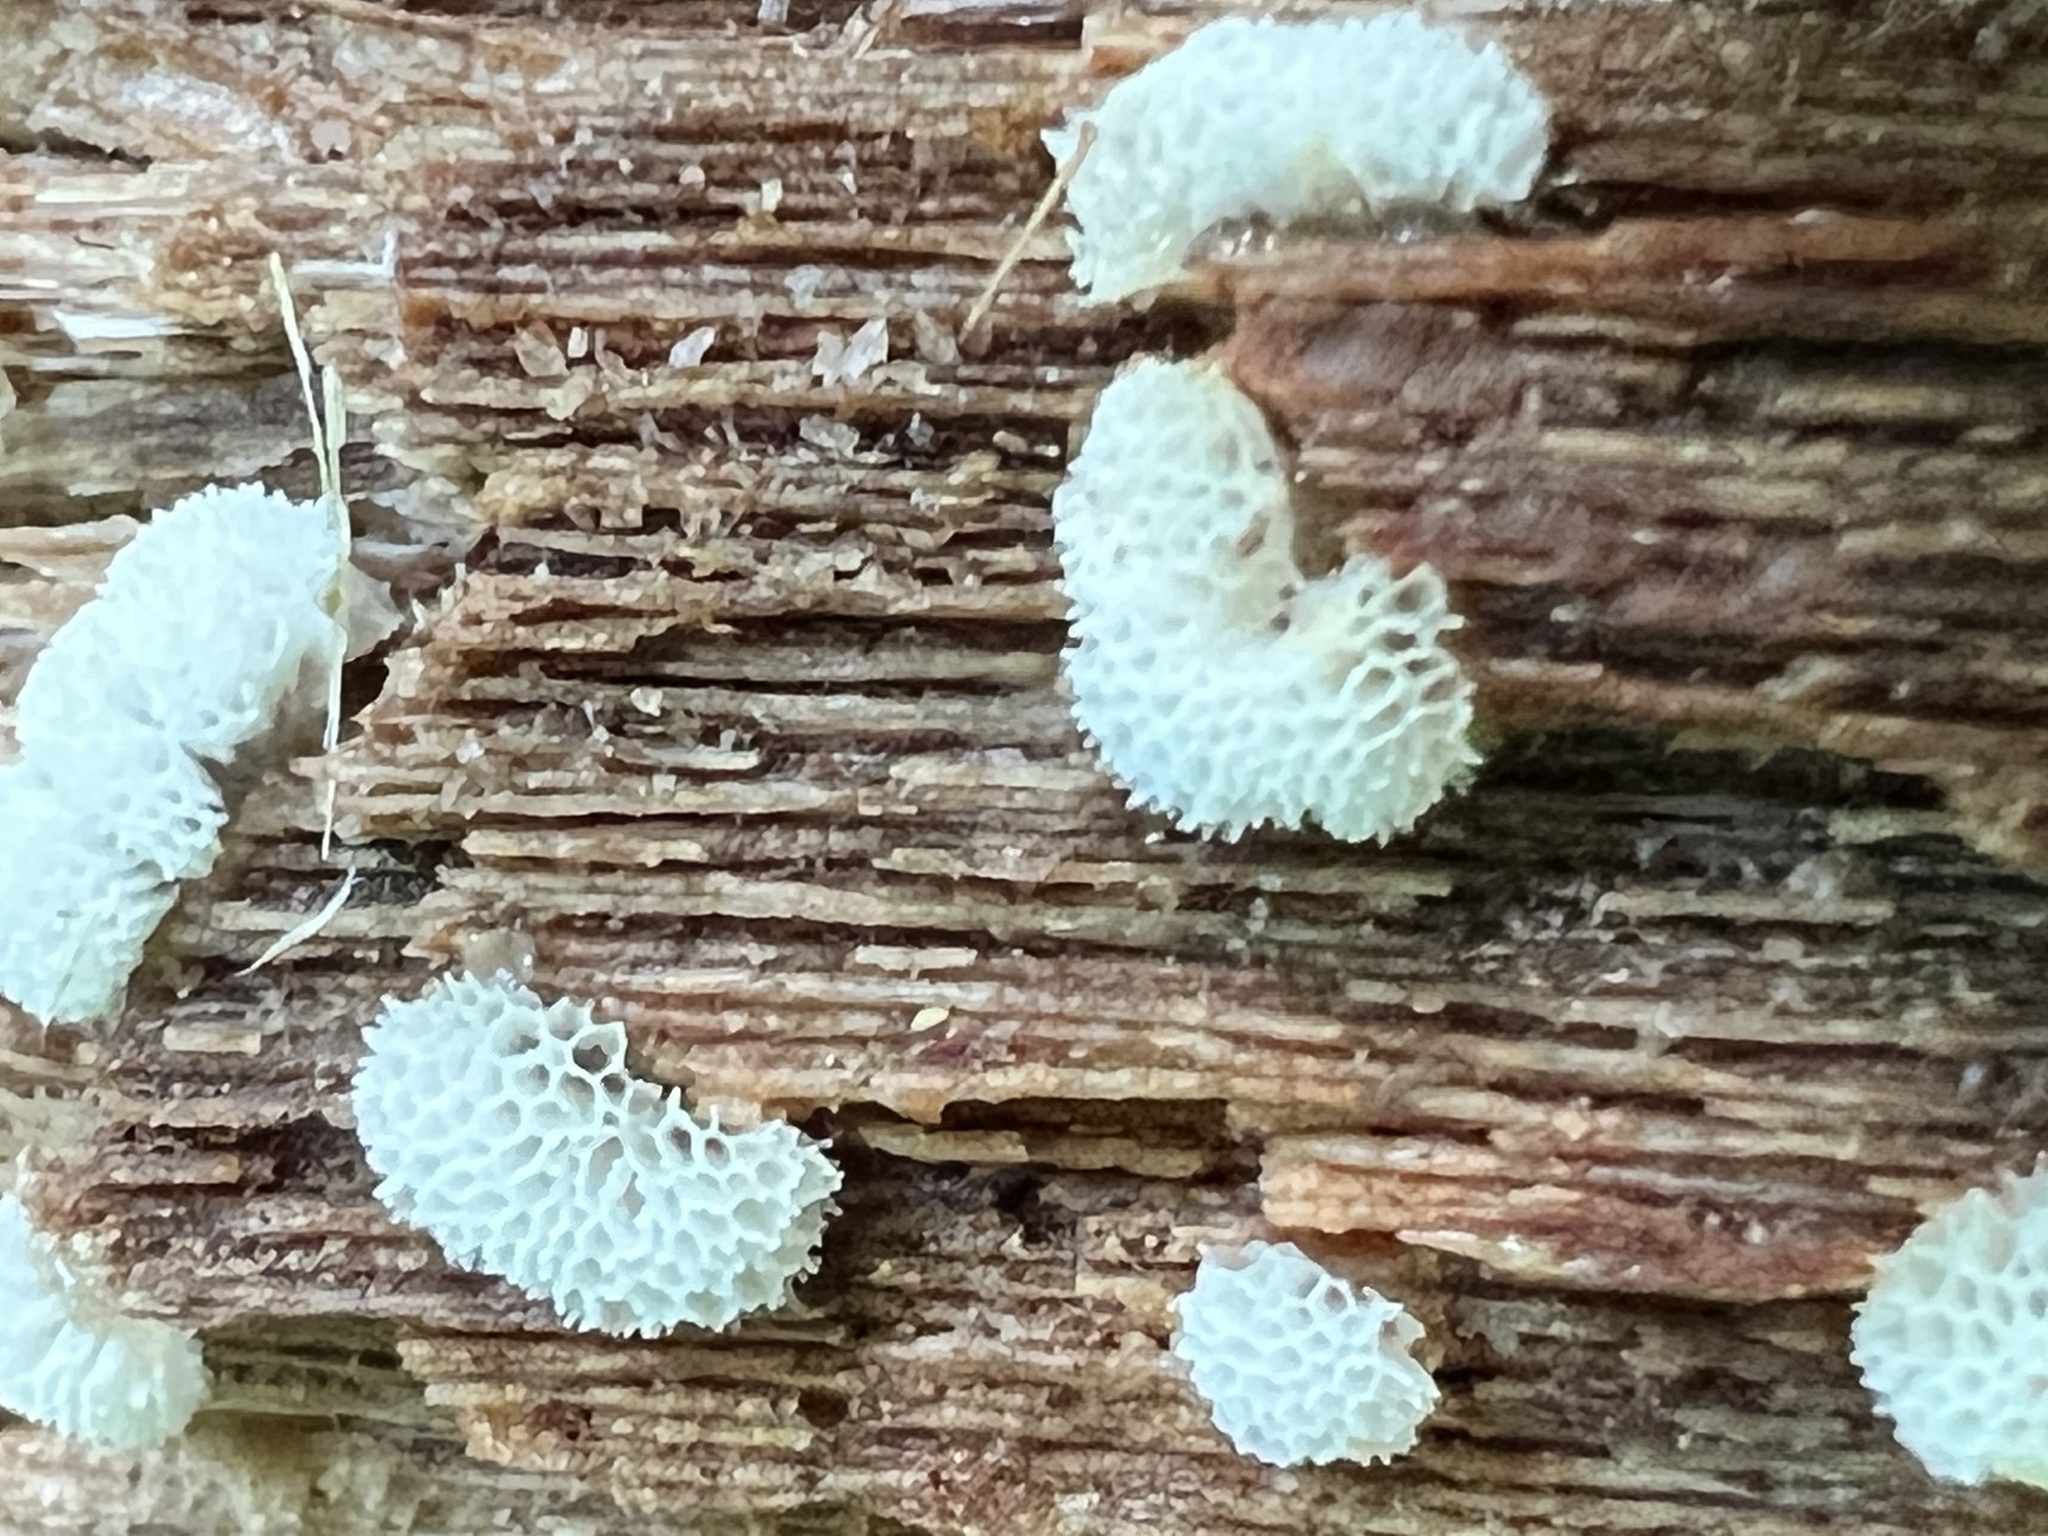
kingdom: Protozoa
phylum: Mycetozoa
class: Protosteliomycetes
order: Ceratiomyxales
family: Ceratiomyxaceae
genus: Ceratiomyxa
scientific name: Ceratiomyxa fruticulosa
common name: Honeycomb coral slime mold
